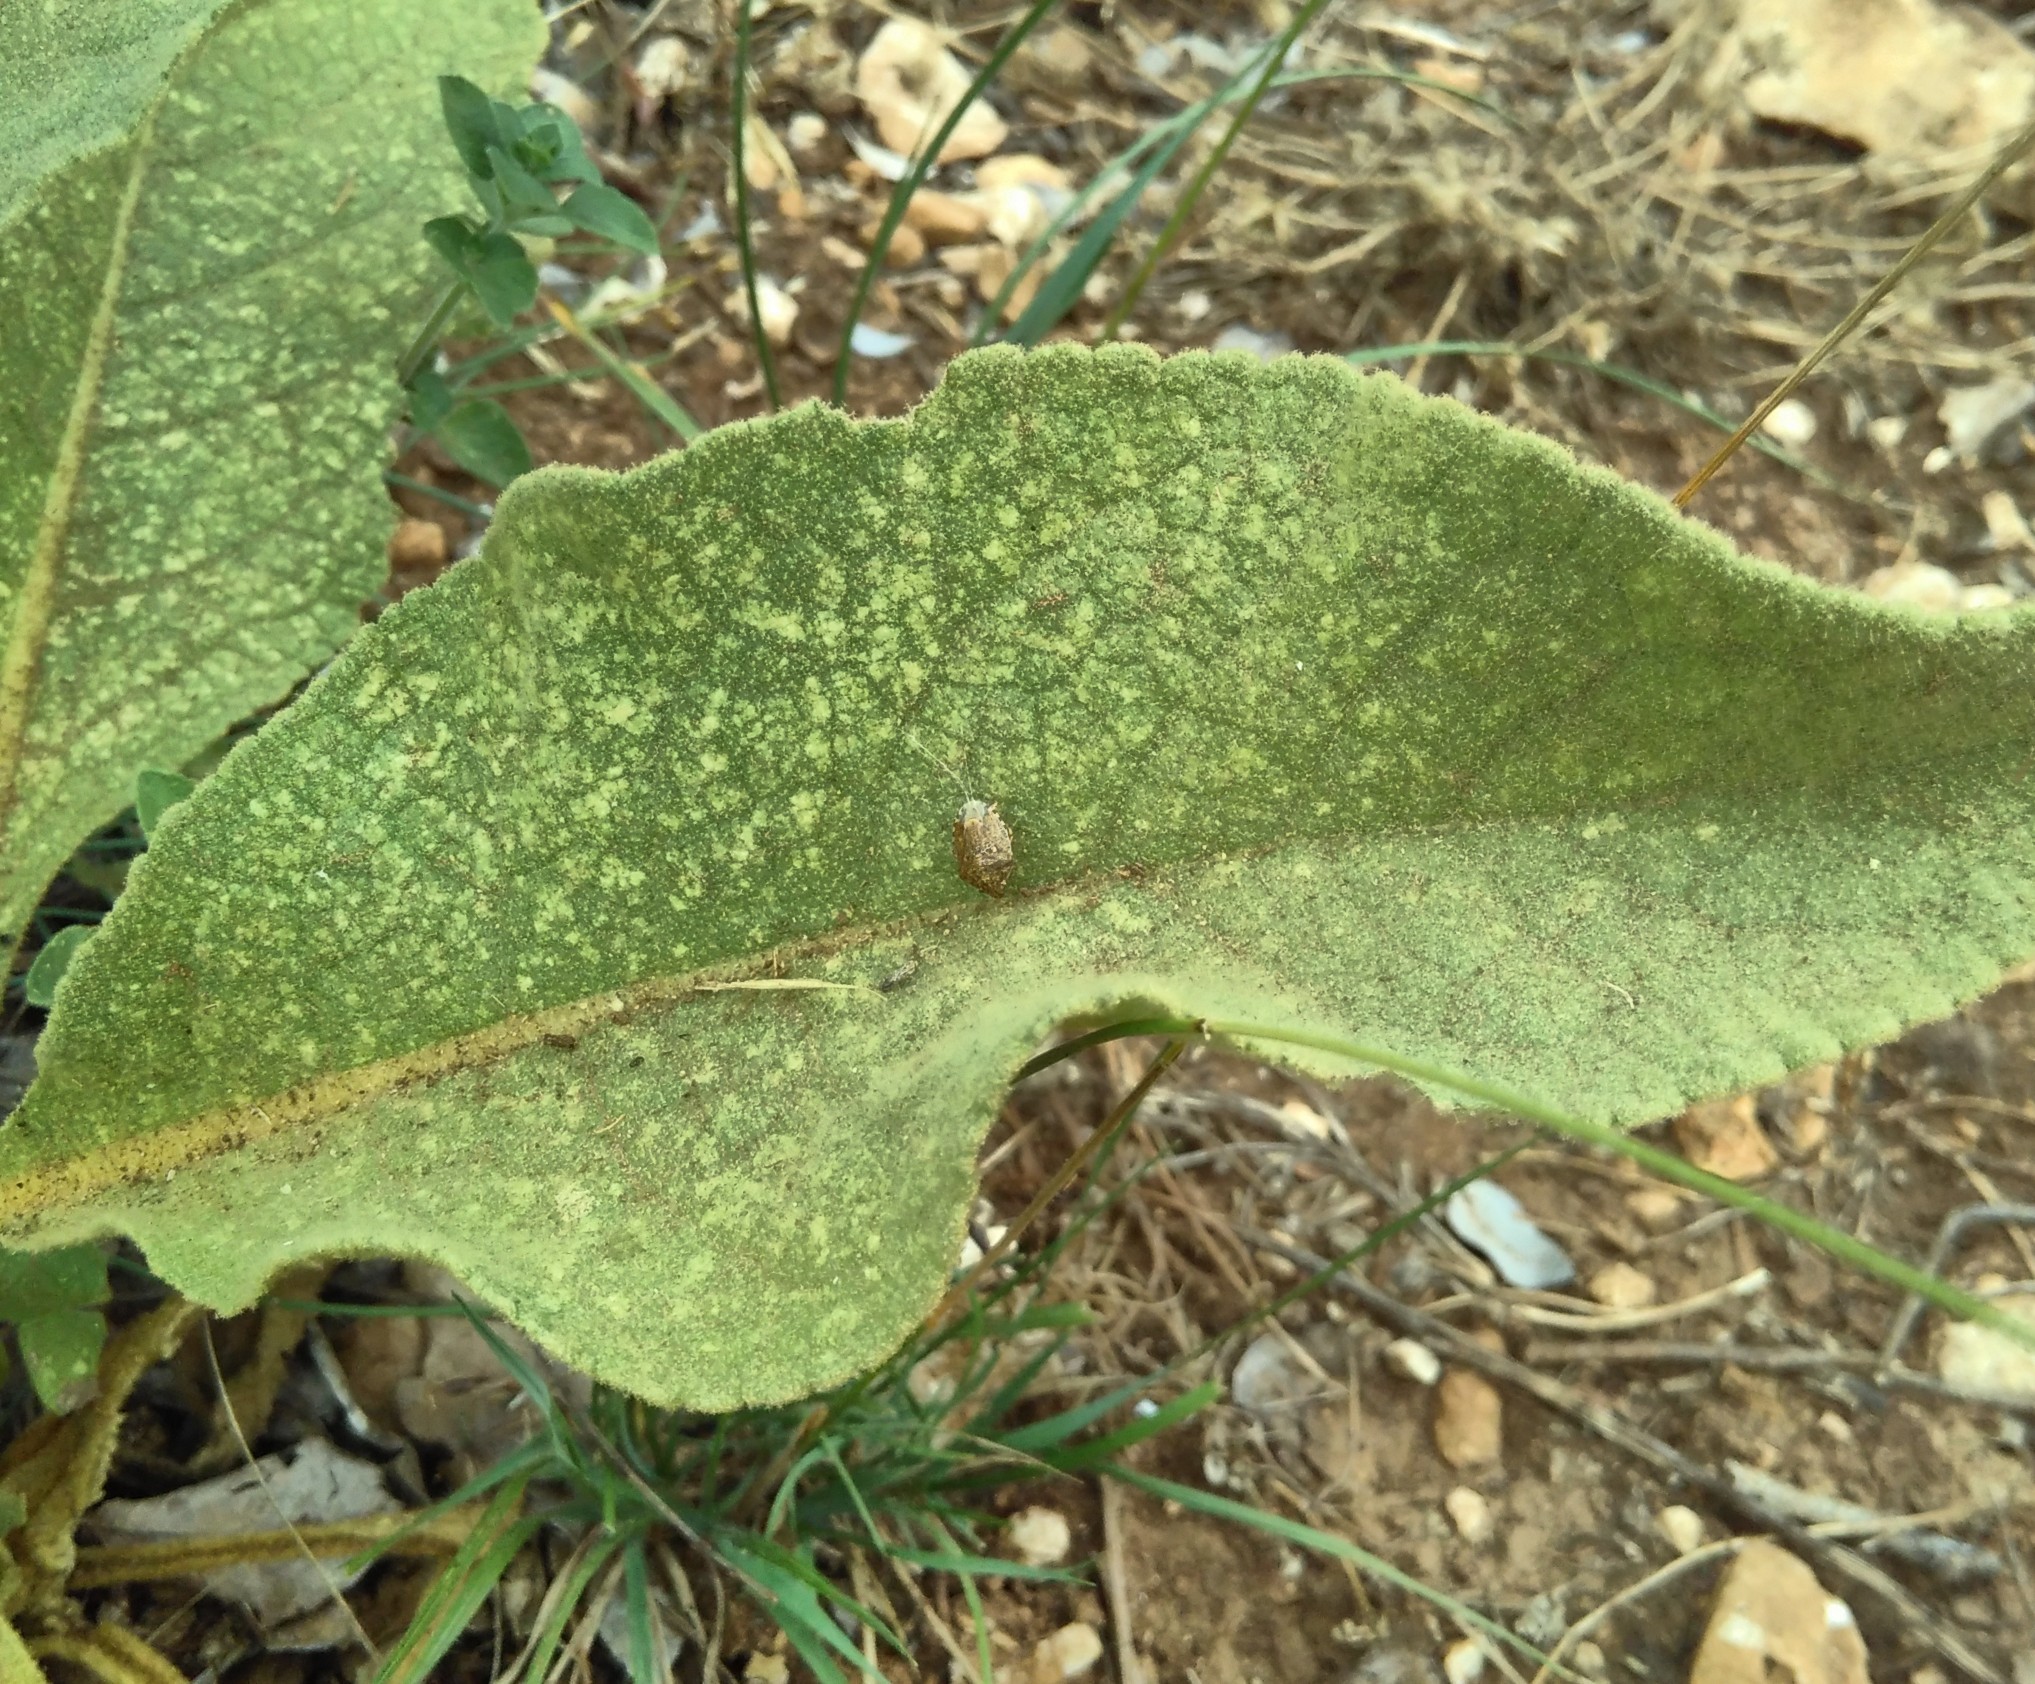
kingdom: Plantae
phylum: Tracheophyta
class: Magnoliopsida
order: Lamiales
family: Scrophulariaceae
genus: Verbascum
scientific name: Verbascum thapsus
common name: Common mullein
